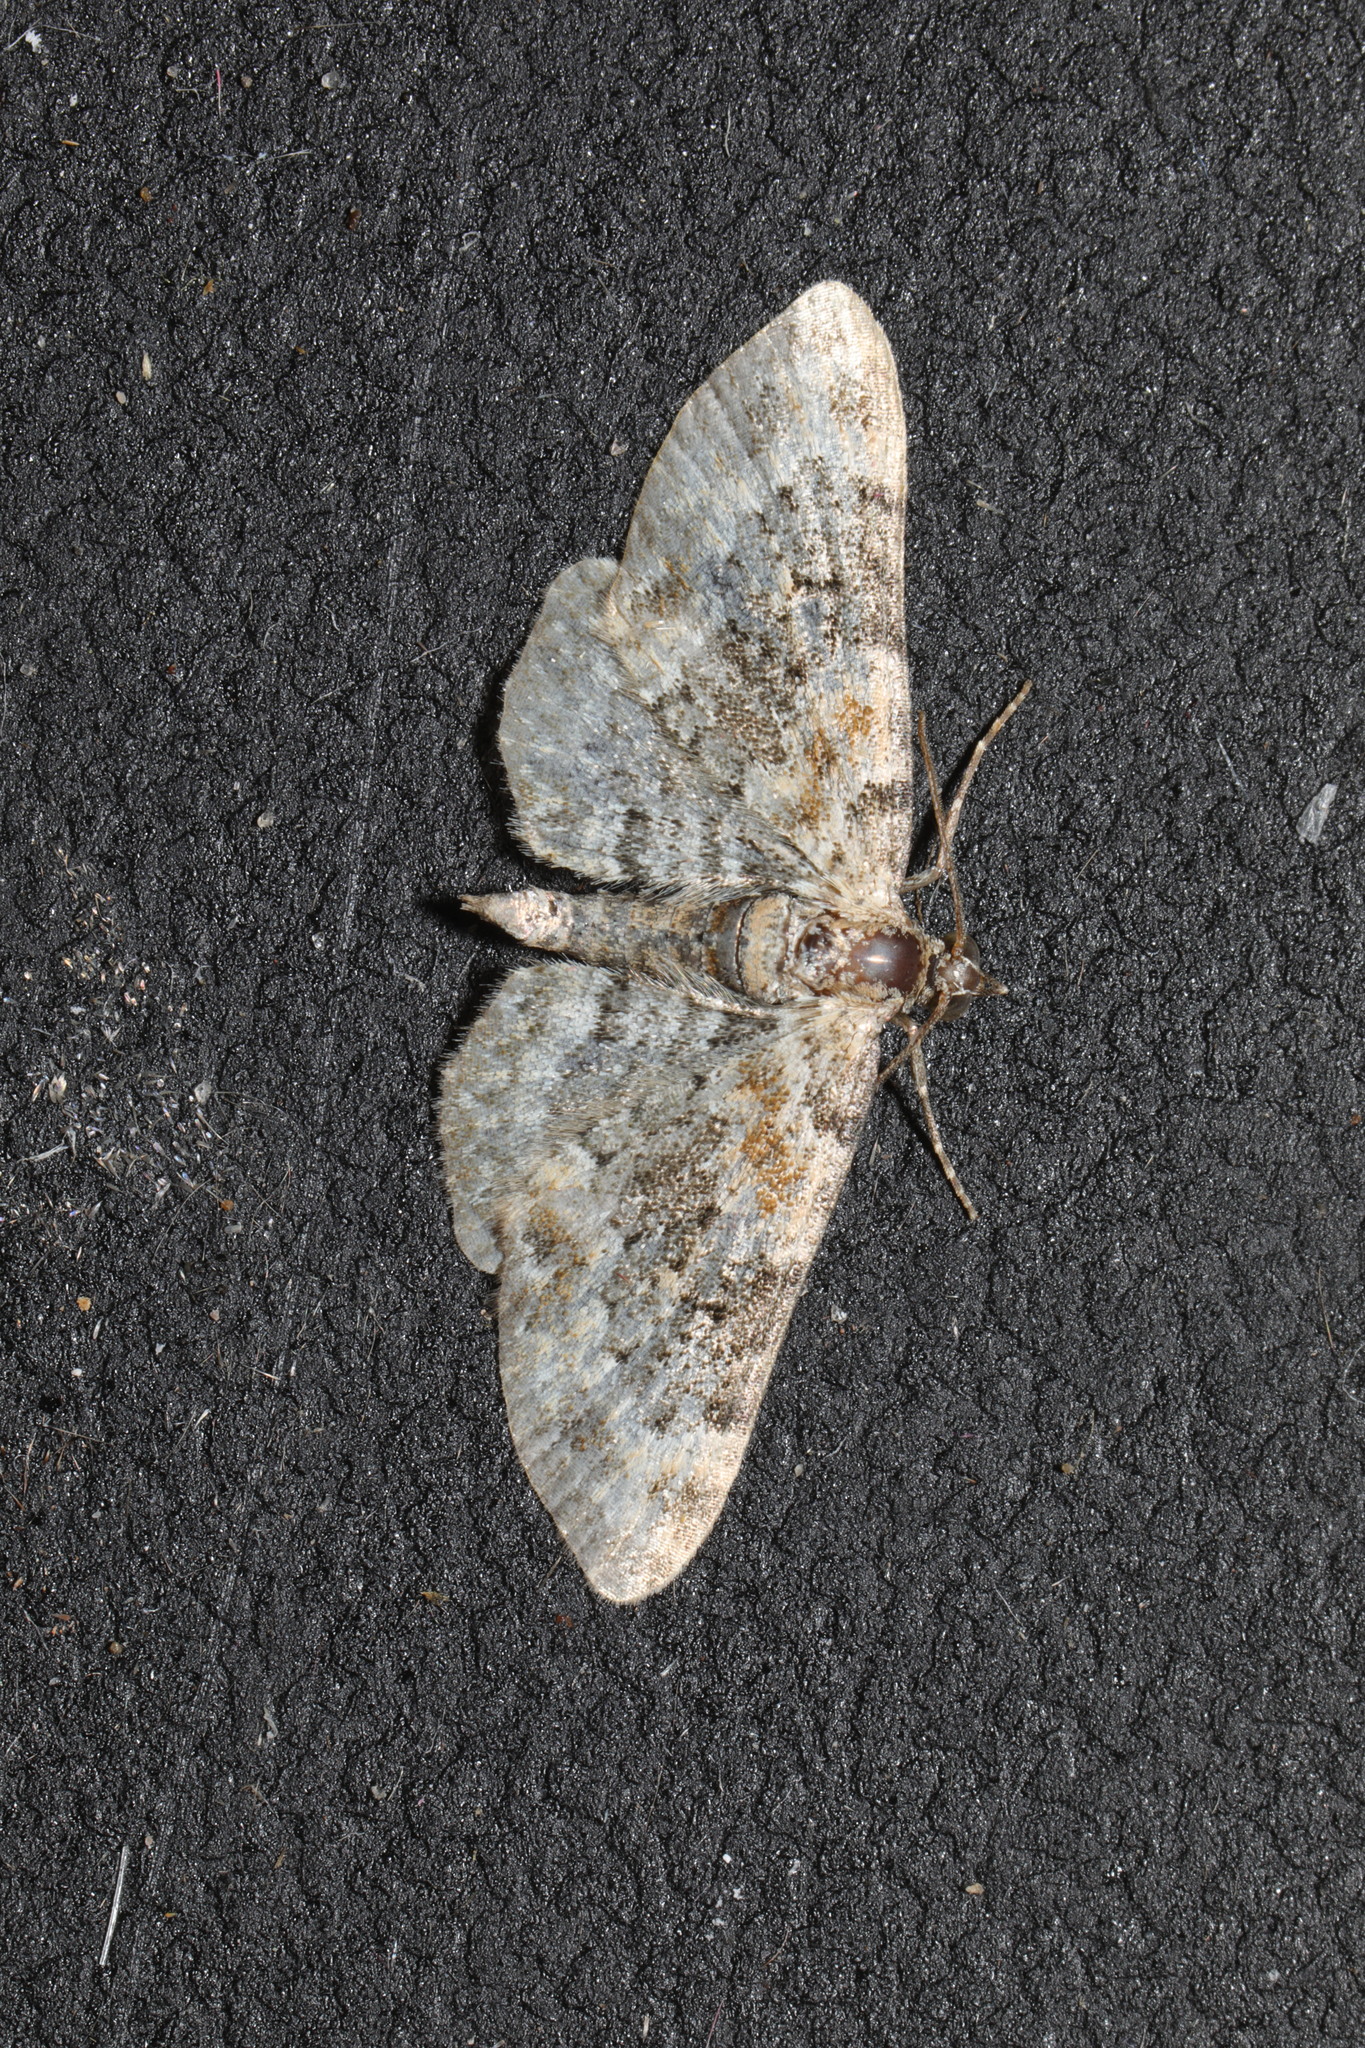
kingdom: Animalia
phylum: Arthropoda
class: Insecta
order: Lepidoptera
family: Geometridae
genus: Xanthorhoe
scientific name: Xanthorhoe ferrugata
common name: Dark-barred twin-spot carpet
